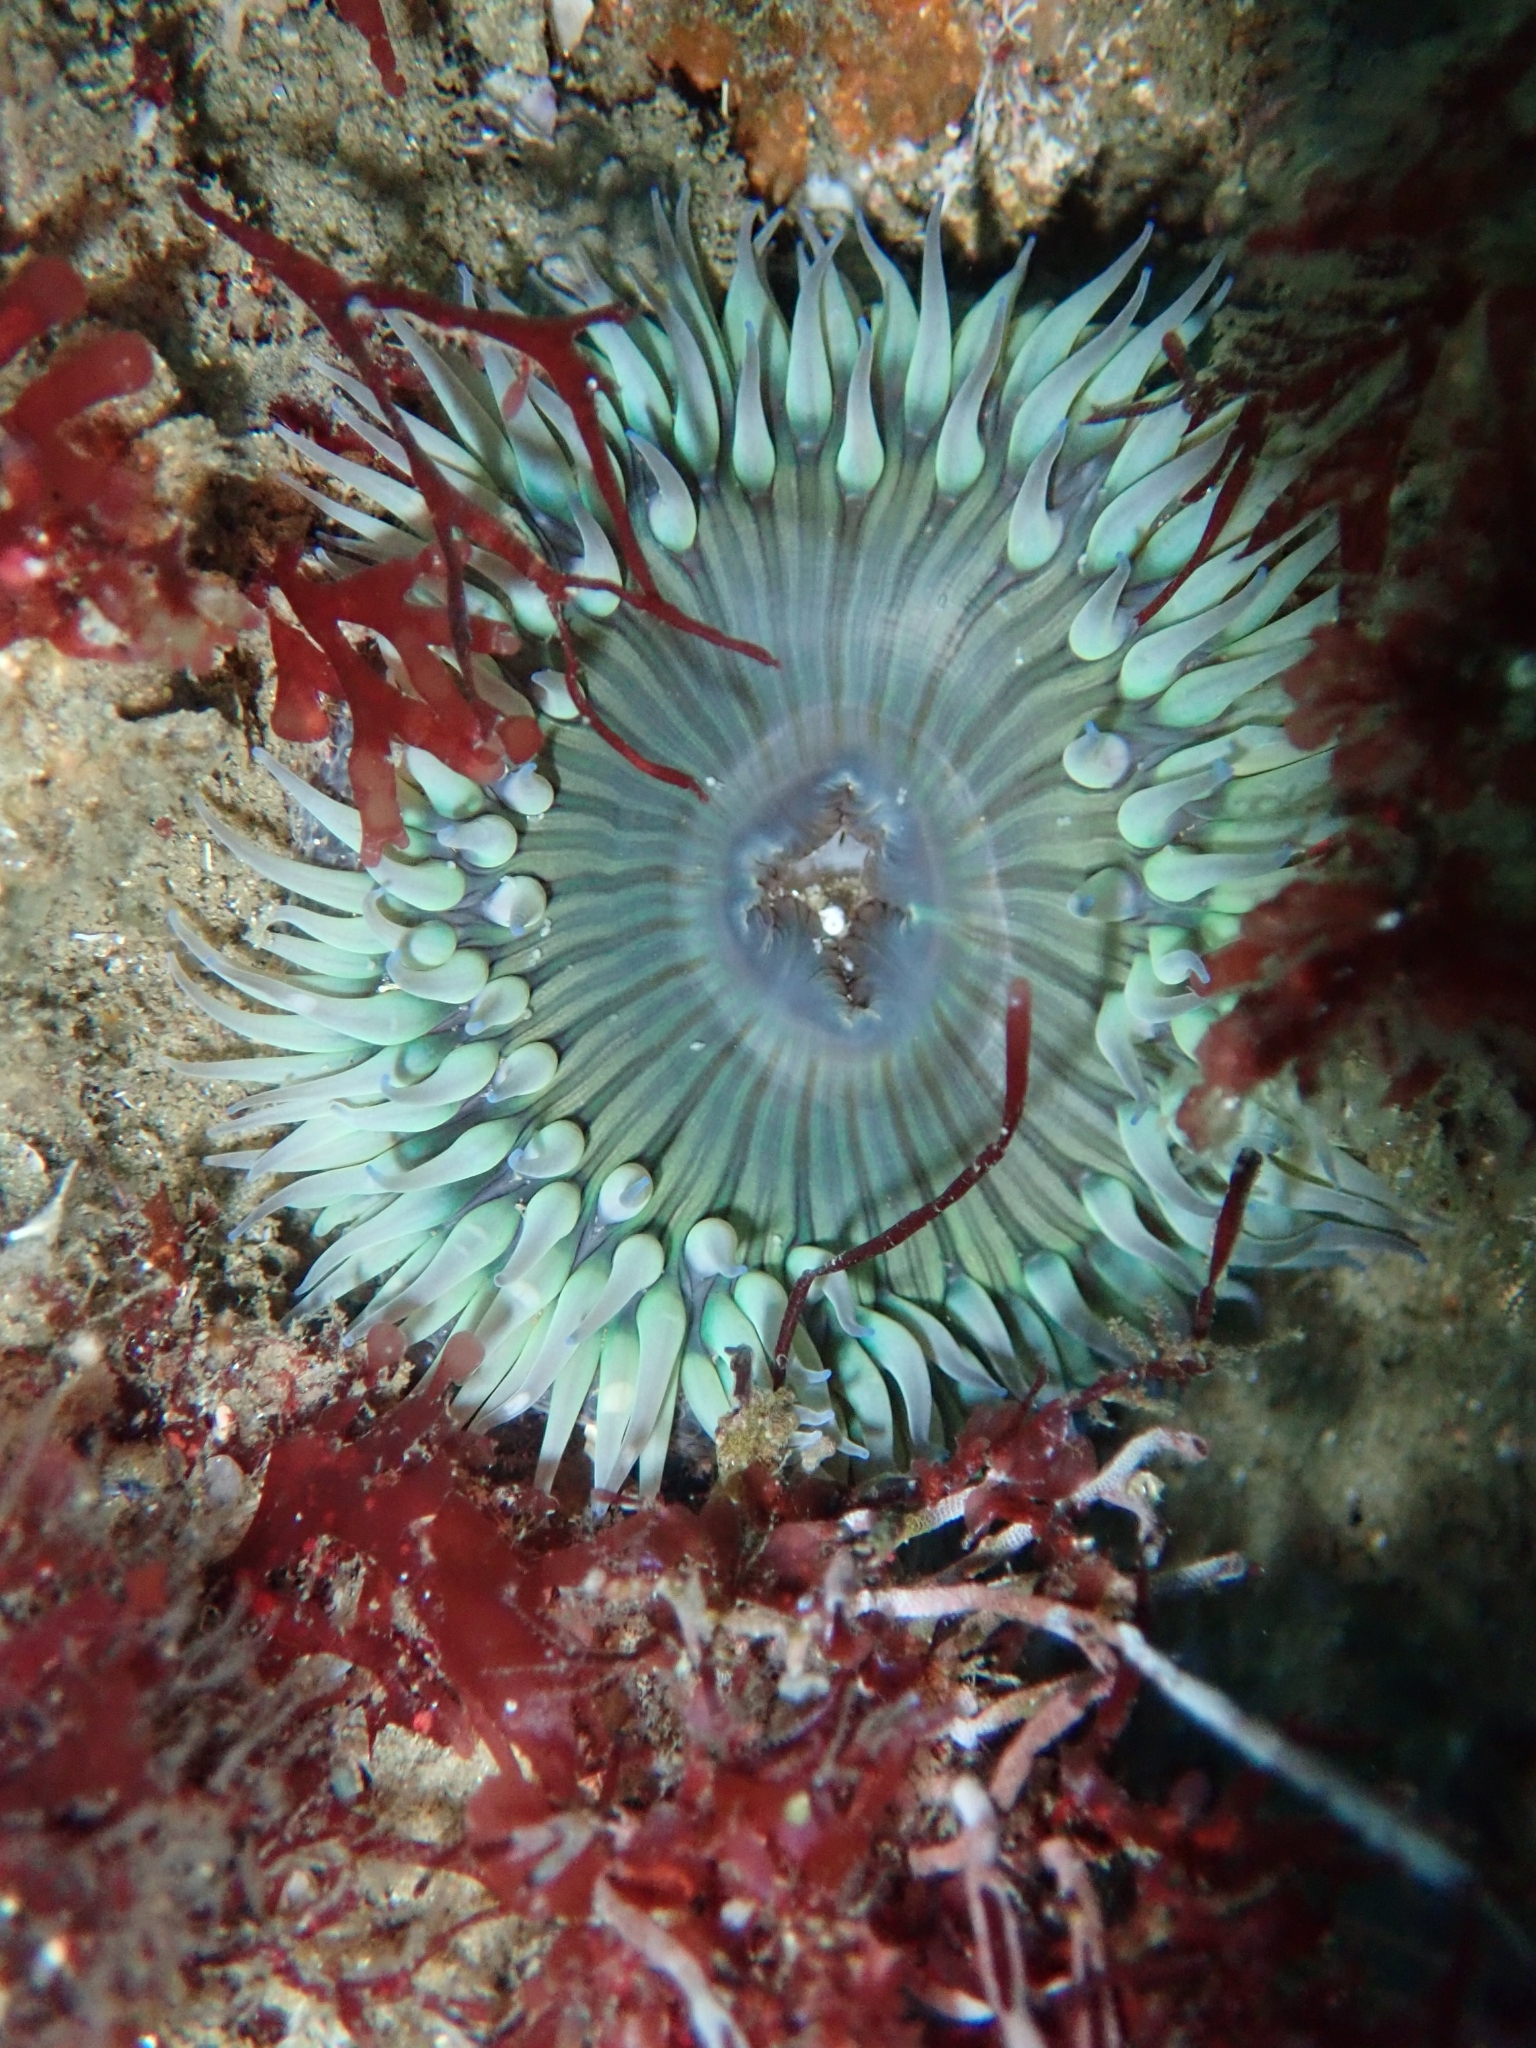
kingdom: Animalia
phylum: Cnidaria
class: Anthozoa
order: Actiniaria
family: Actiniidae
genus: Anthopleura
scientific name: Anthopleura sola
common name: Sun anemone
